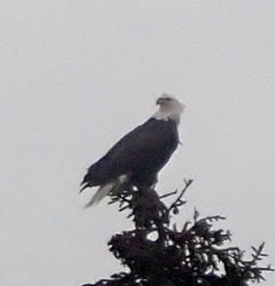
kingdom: Animalia
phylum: Chordata
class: Aves
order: Accipitriformes
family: Accipitridae
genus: Haliaeetus
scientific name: Haliaeetus leucocephalus
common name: Bald eagle
